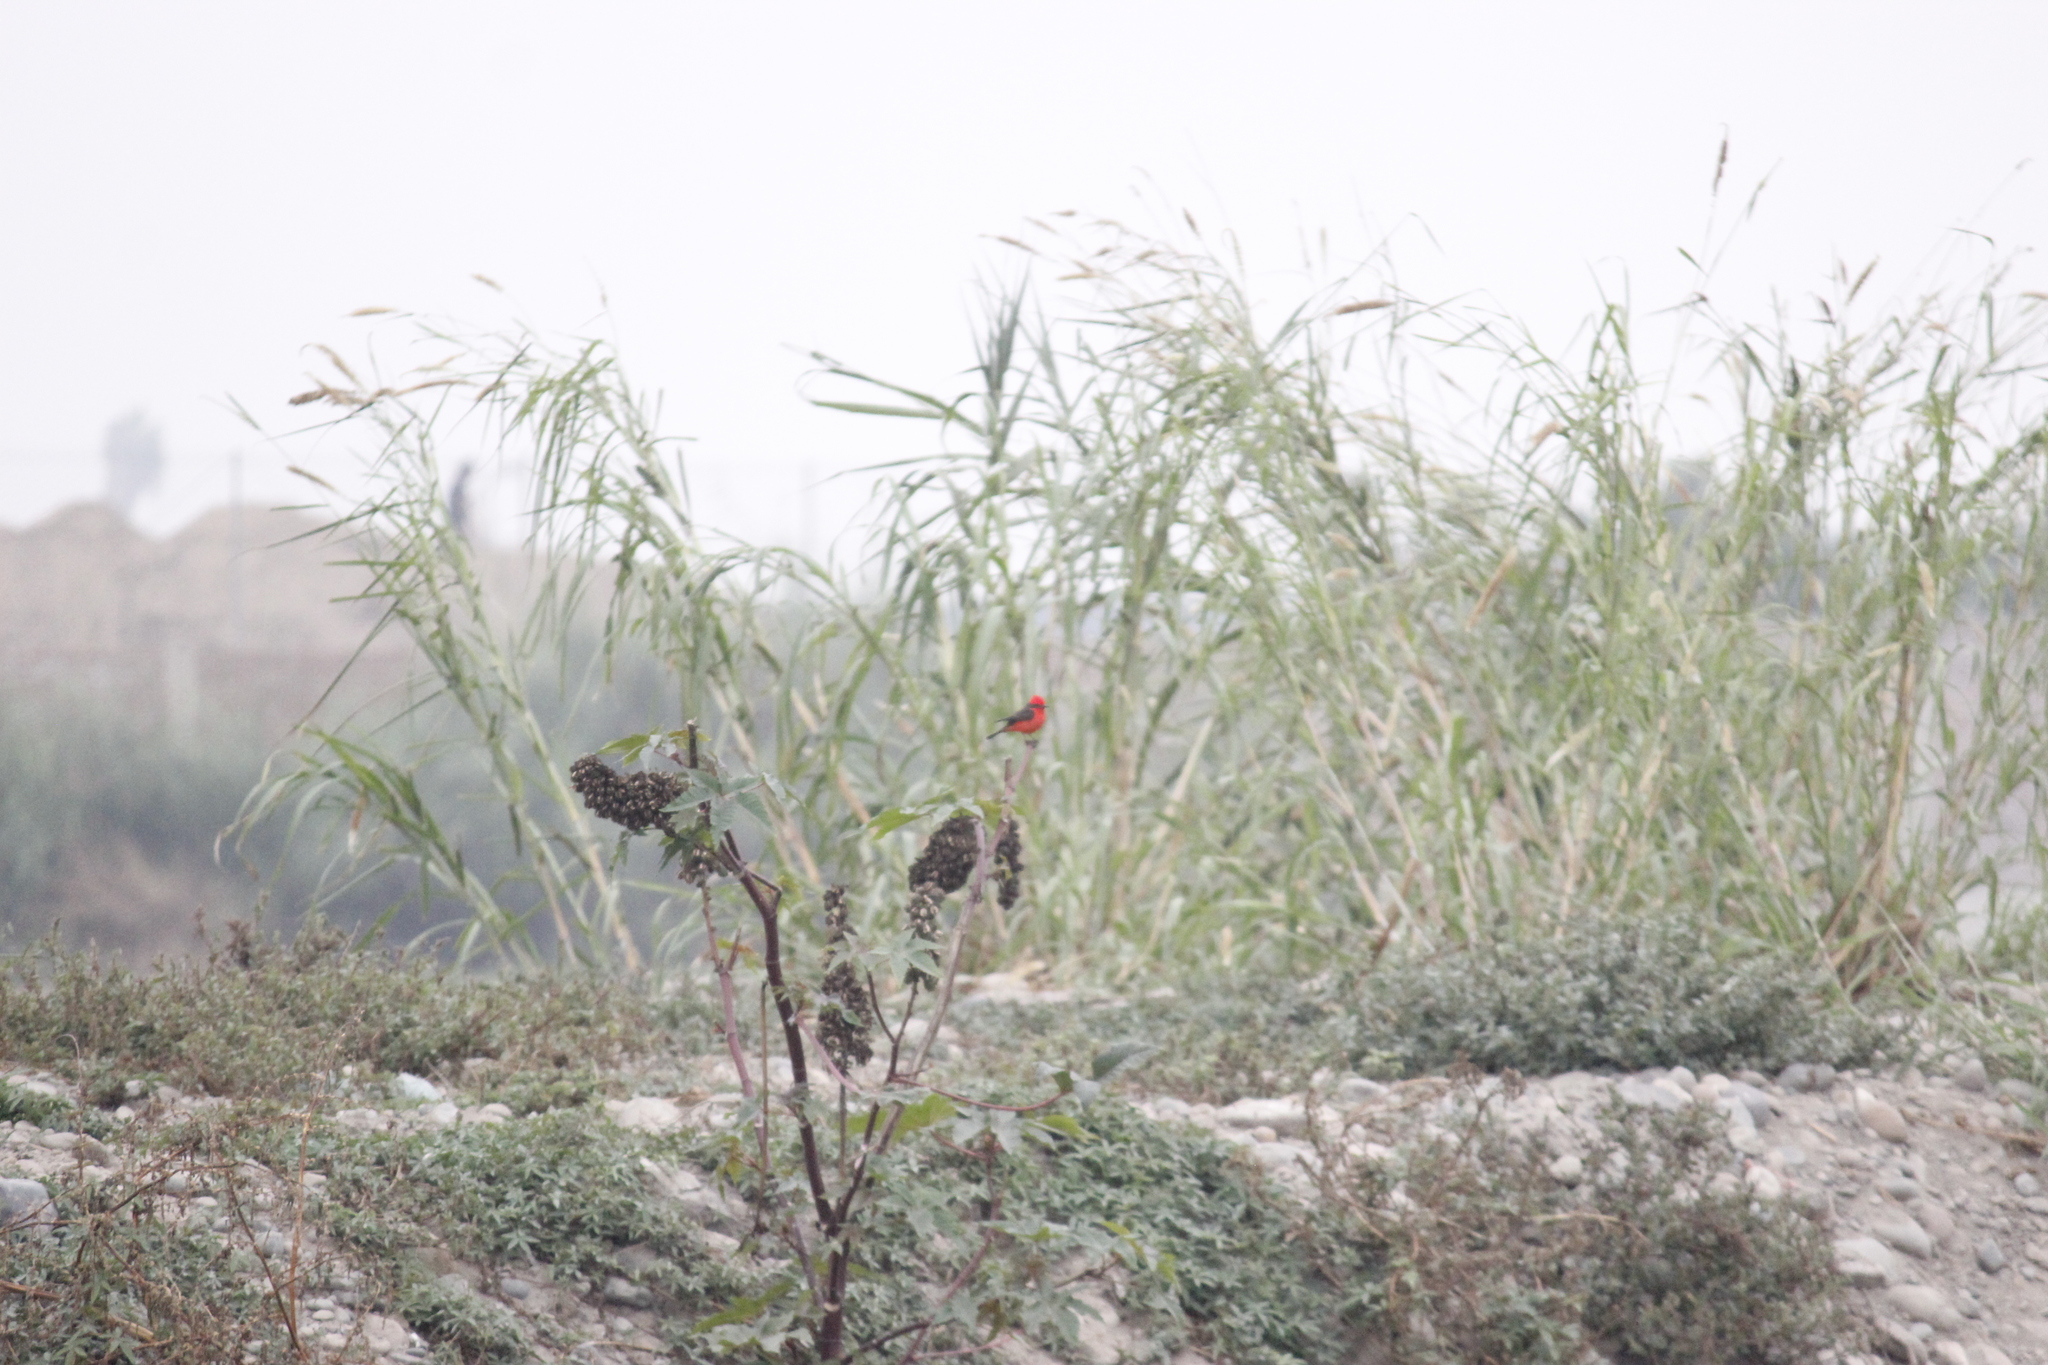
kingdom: Animalia
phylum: Chordata
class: Aves
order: Passeriformes
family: Tyrannidae
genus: Pyrocephalus
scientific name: Pyrocephalus rubinus
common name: Vermilion flycatcher
